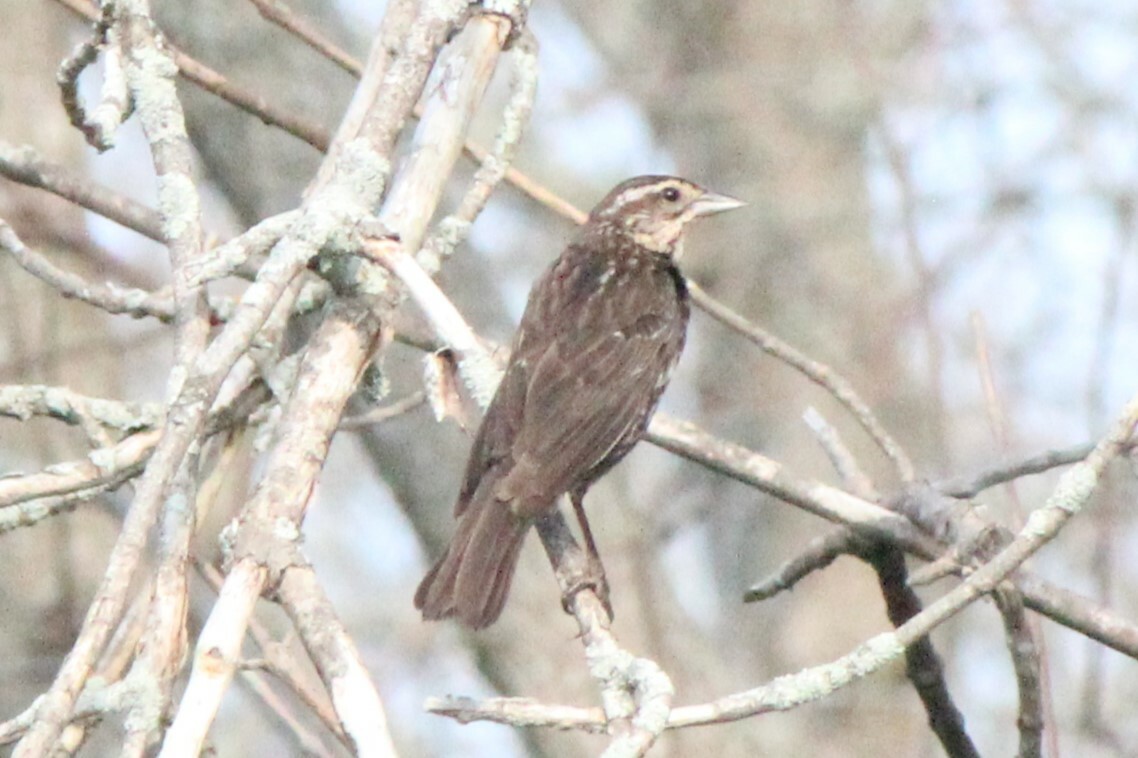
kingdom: Animalia
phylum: Chordata
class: Aves
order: Passeriformes
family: Icteridae
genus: Agelaius
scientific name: Agelaius phoeniceus
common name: Red-winged blackbird
